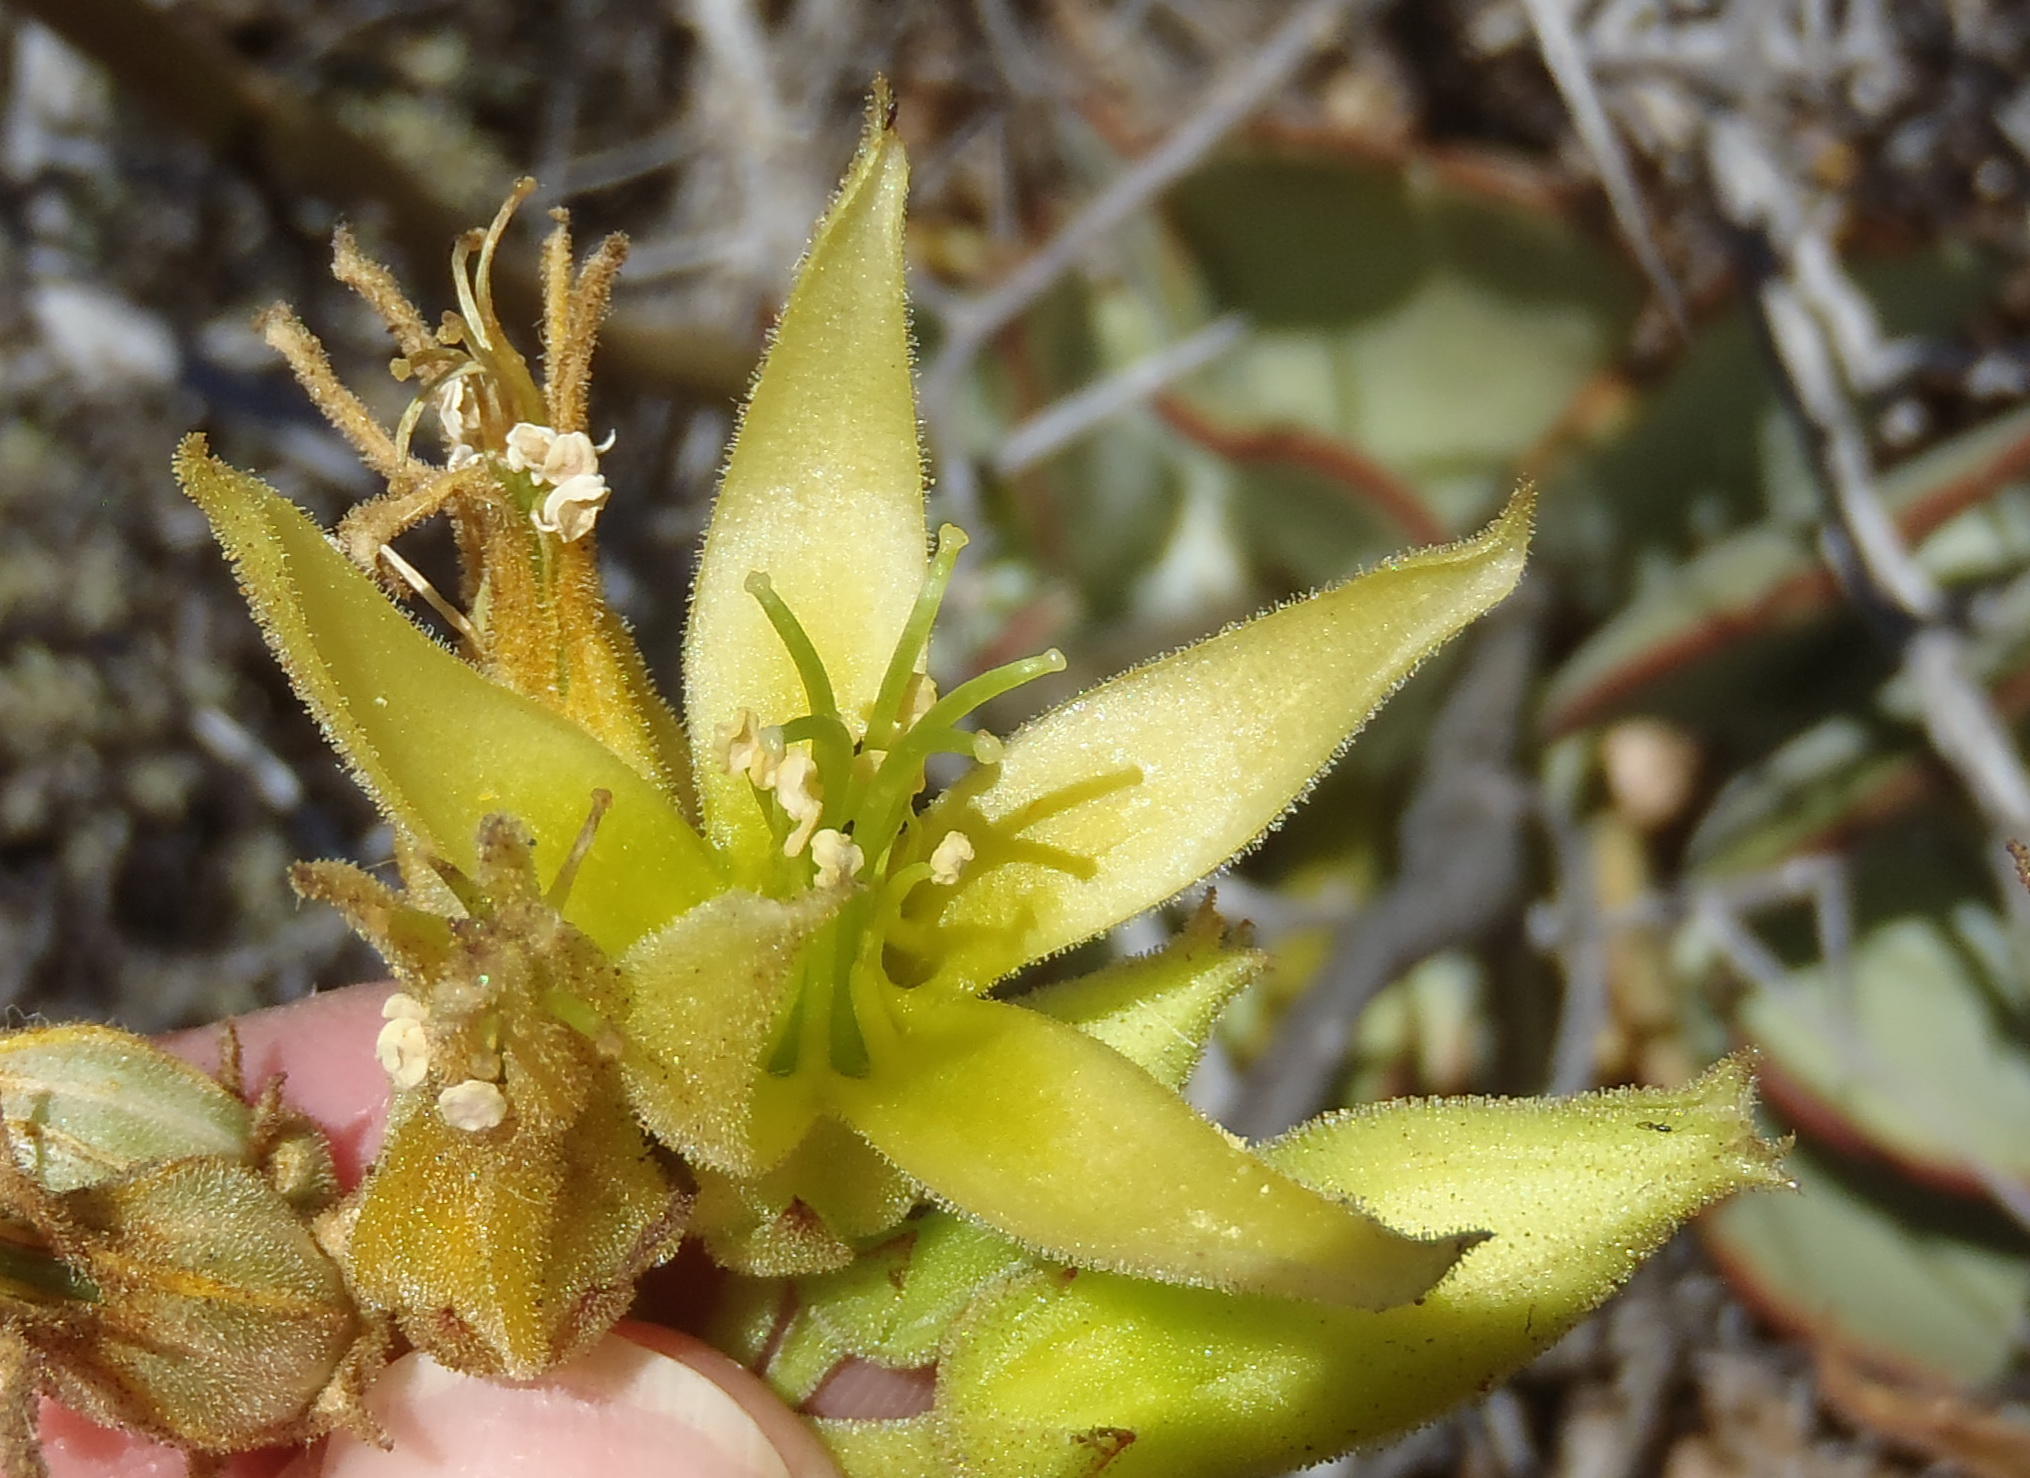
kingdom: Plantae
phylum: Tracheophyta
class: Magnoliopsida
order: Saxifragales
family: Crassulaceae
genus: Cotyledon
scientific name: Cotyledon cuneata
